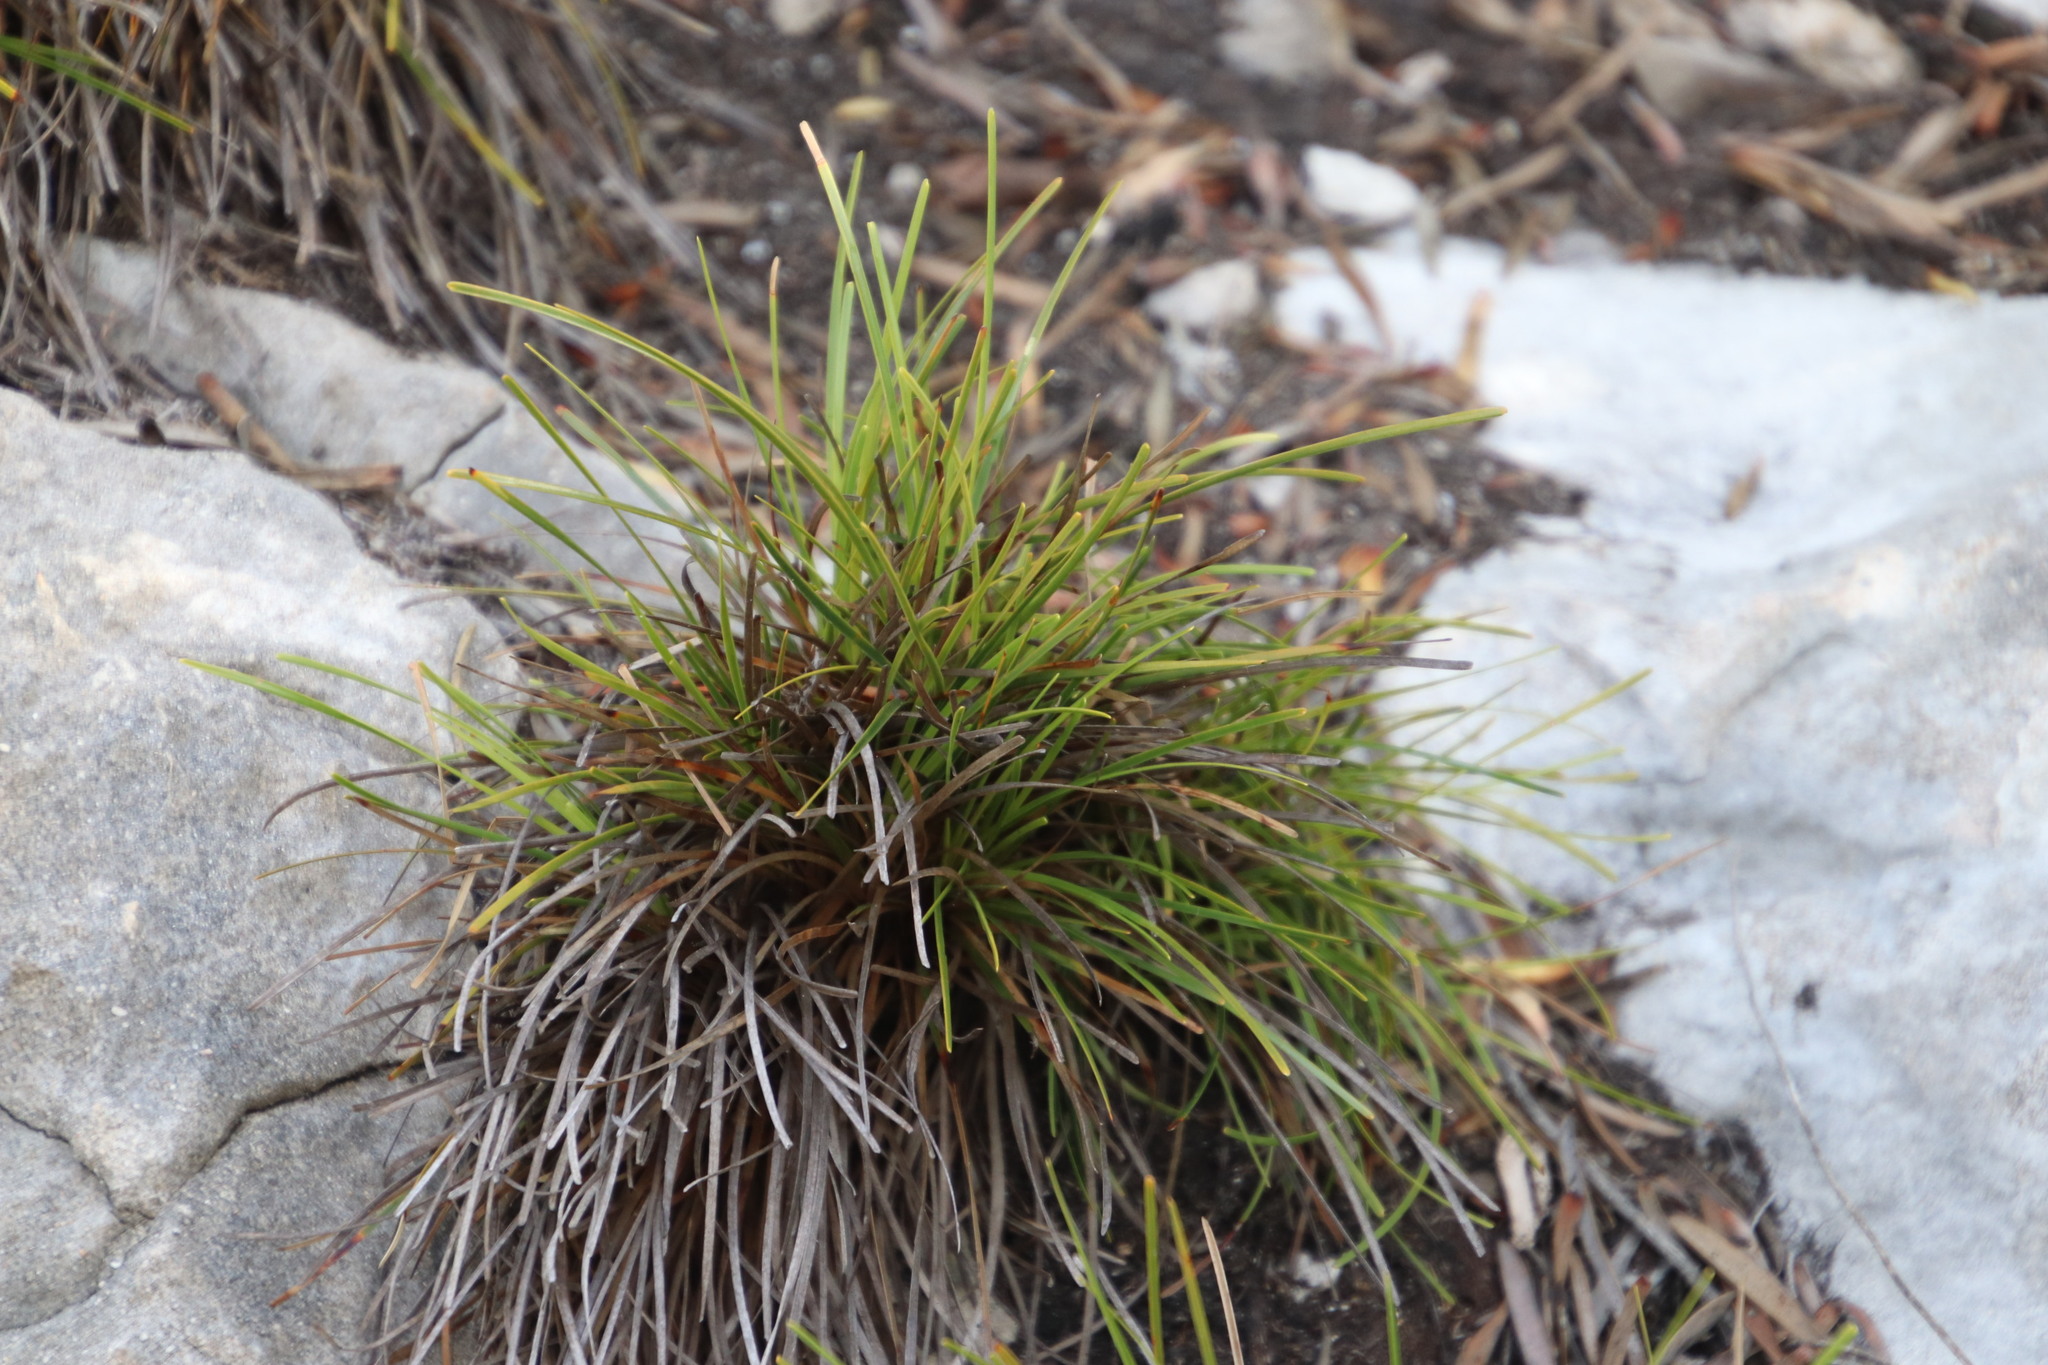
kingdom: Plantae
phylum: Tracheophyta
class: Liliopsida
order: Poales
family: Cyperaceae
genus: Ficinia
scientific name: Ficinia praemorsa
